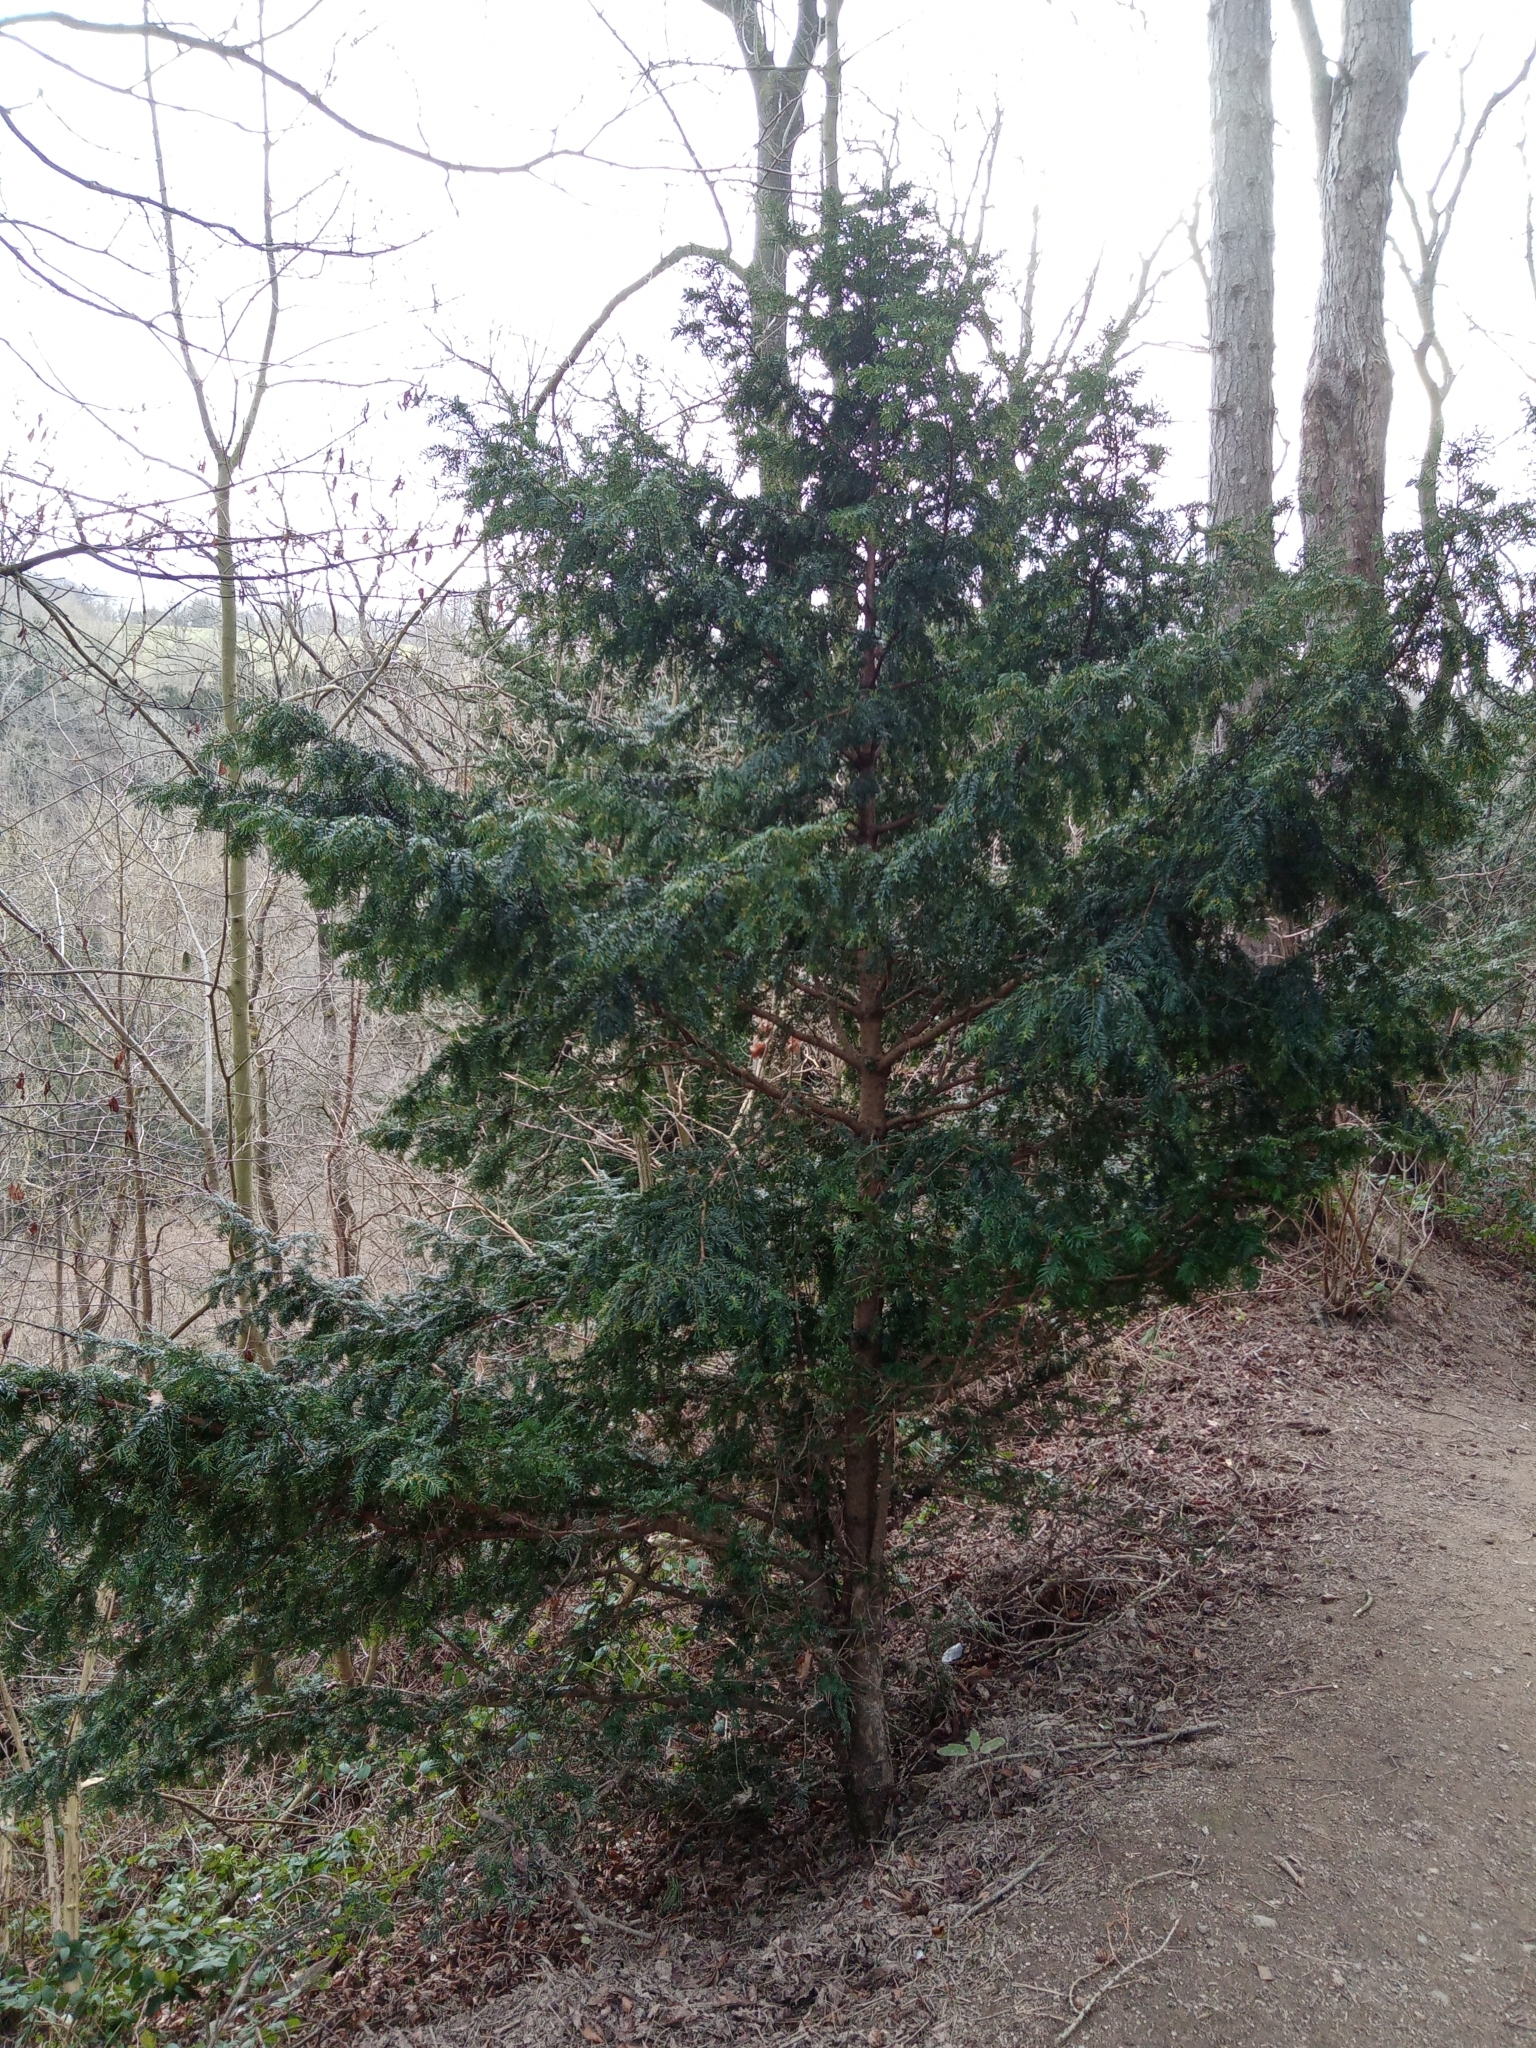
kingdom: Plantae
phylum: Tracheophyta
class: Pinopsida
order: Pinales
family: Taxaceae
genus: Taxus
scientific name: Taxus baccata
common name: Yew
